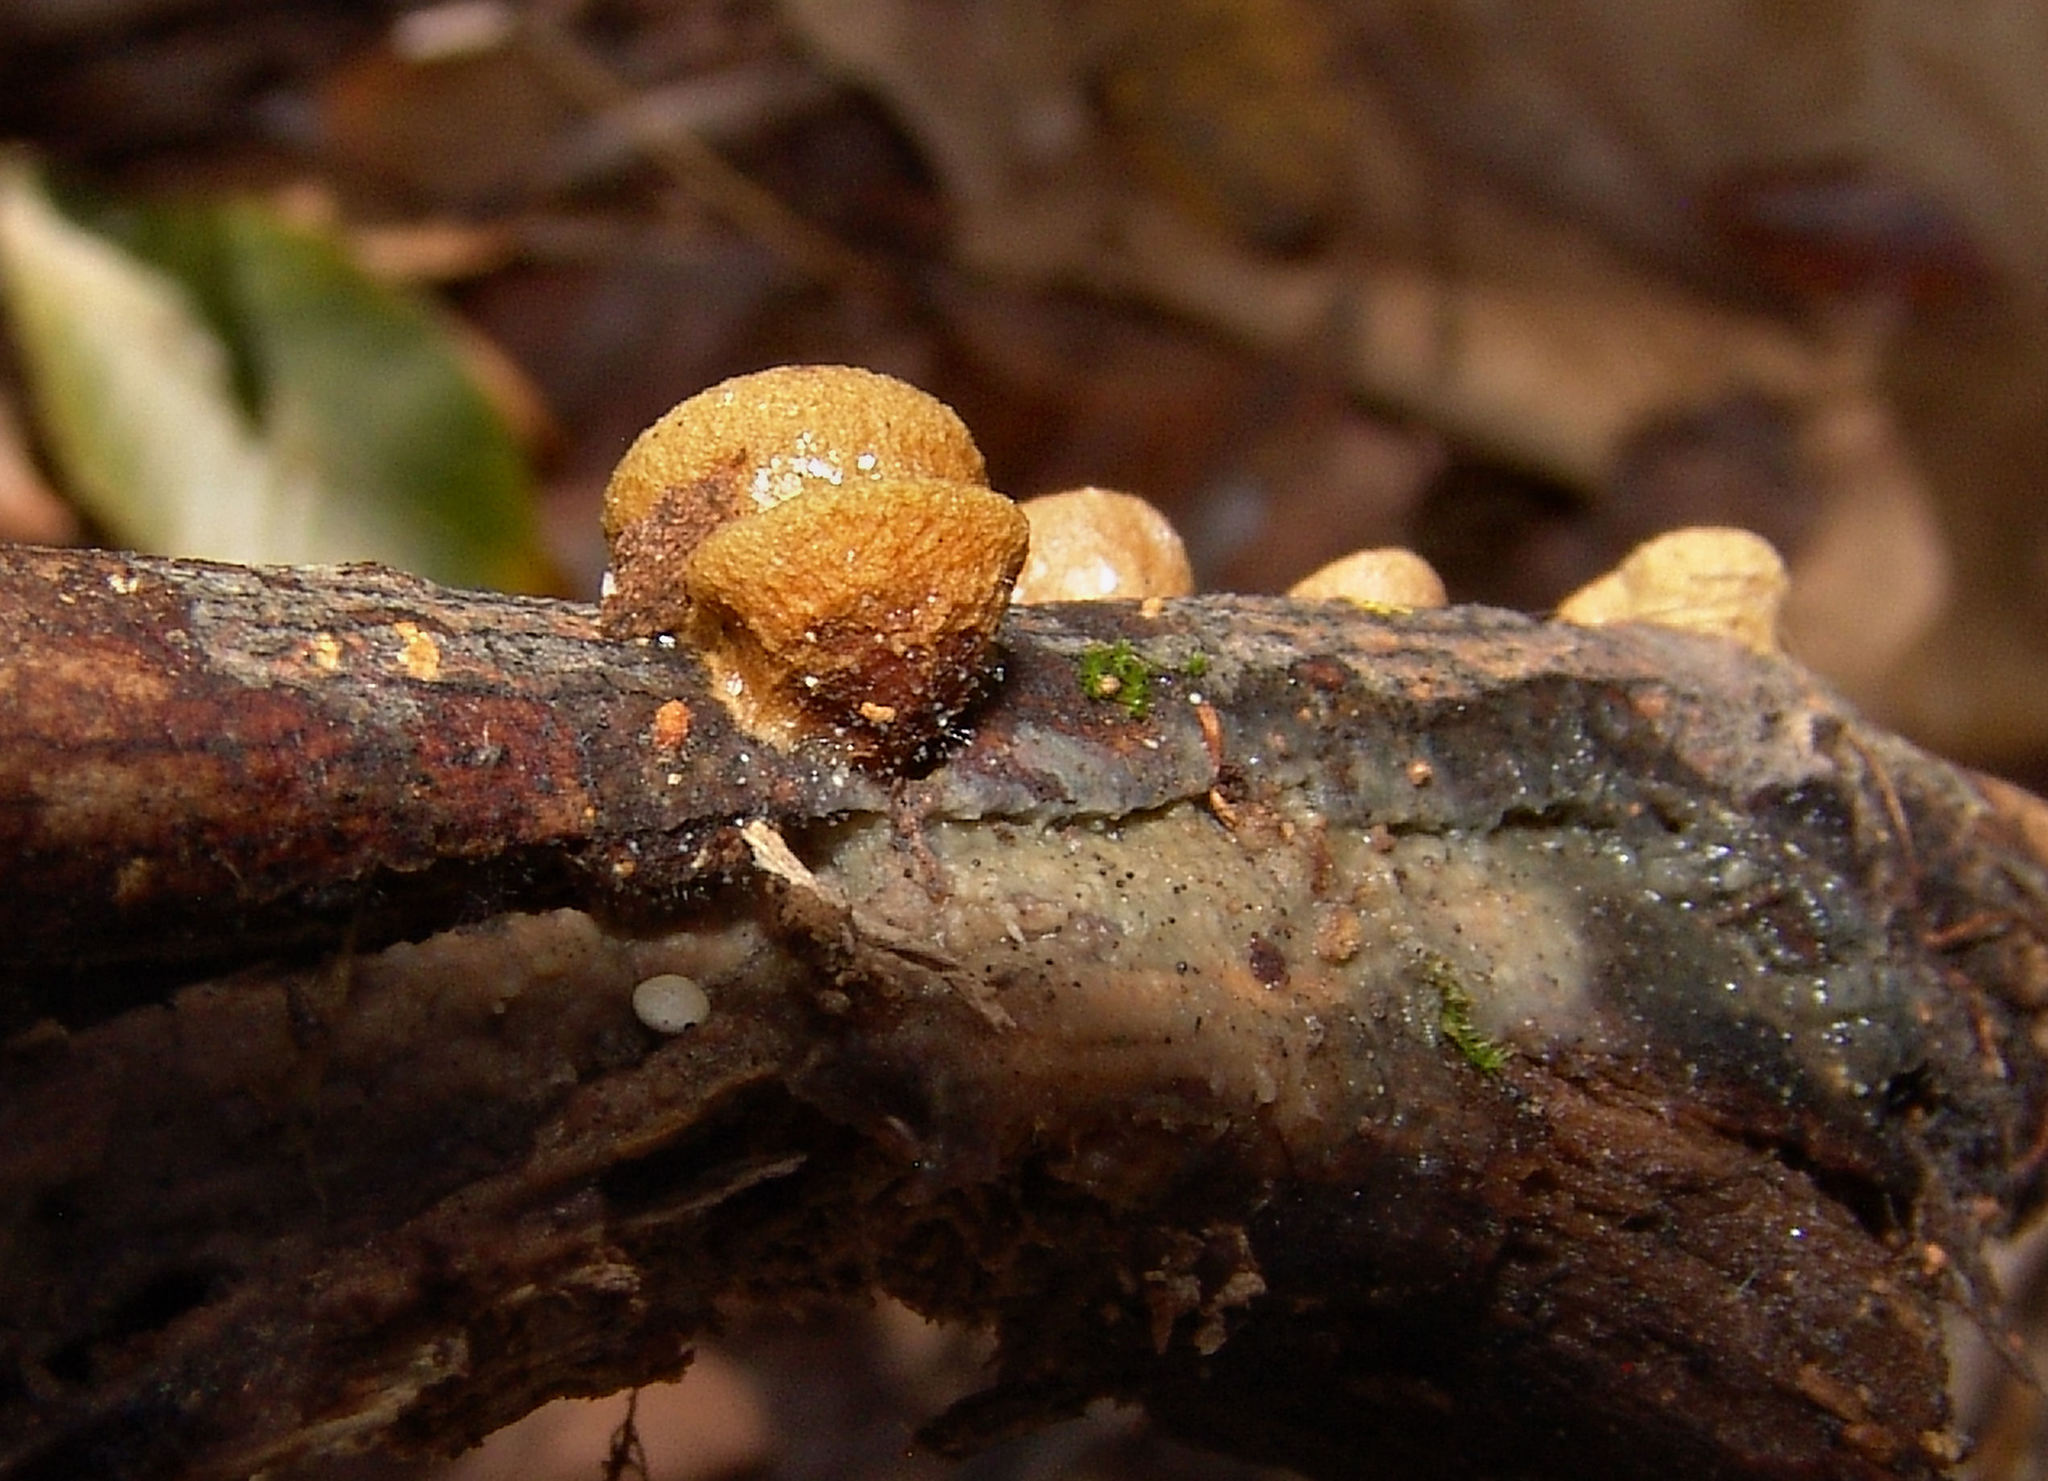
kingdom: Fungi
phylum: Basidiomycota
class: Agaricomycetes
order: Agaricales
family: Nidulariaceae
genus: Crucibulum
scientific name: Crucibulum laeve
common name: Common bird's nest
